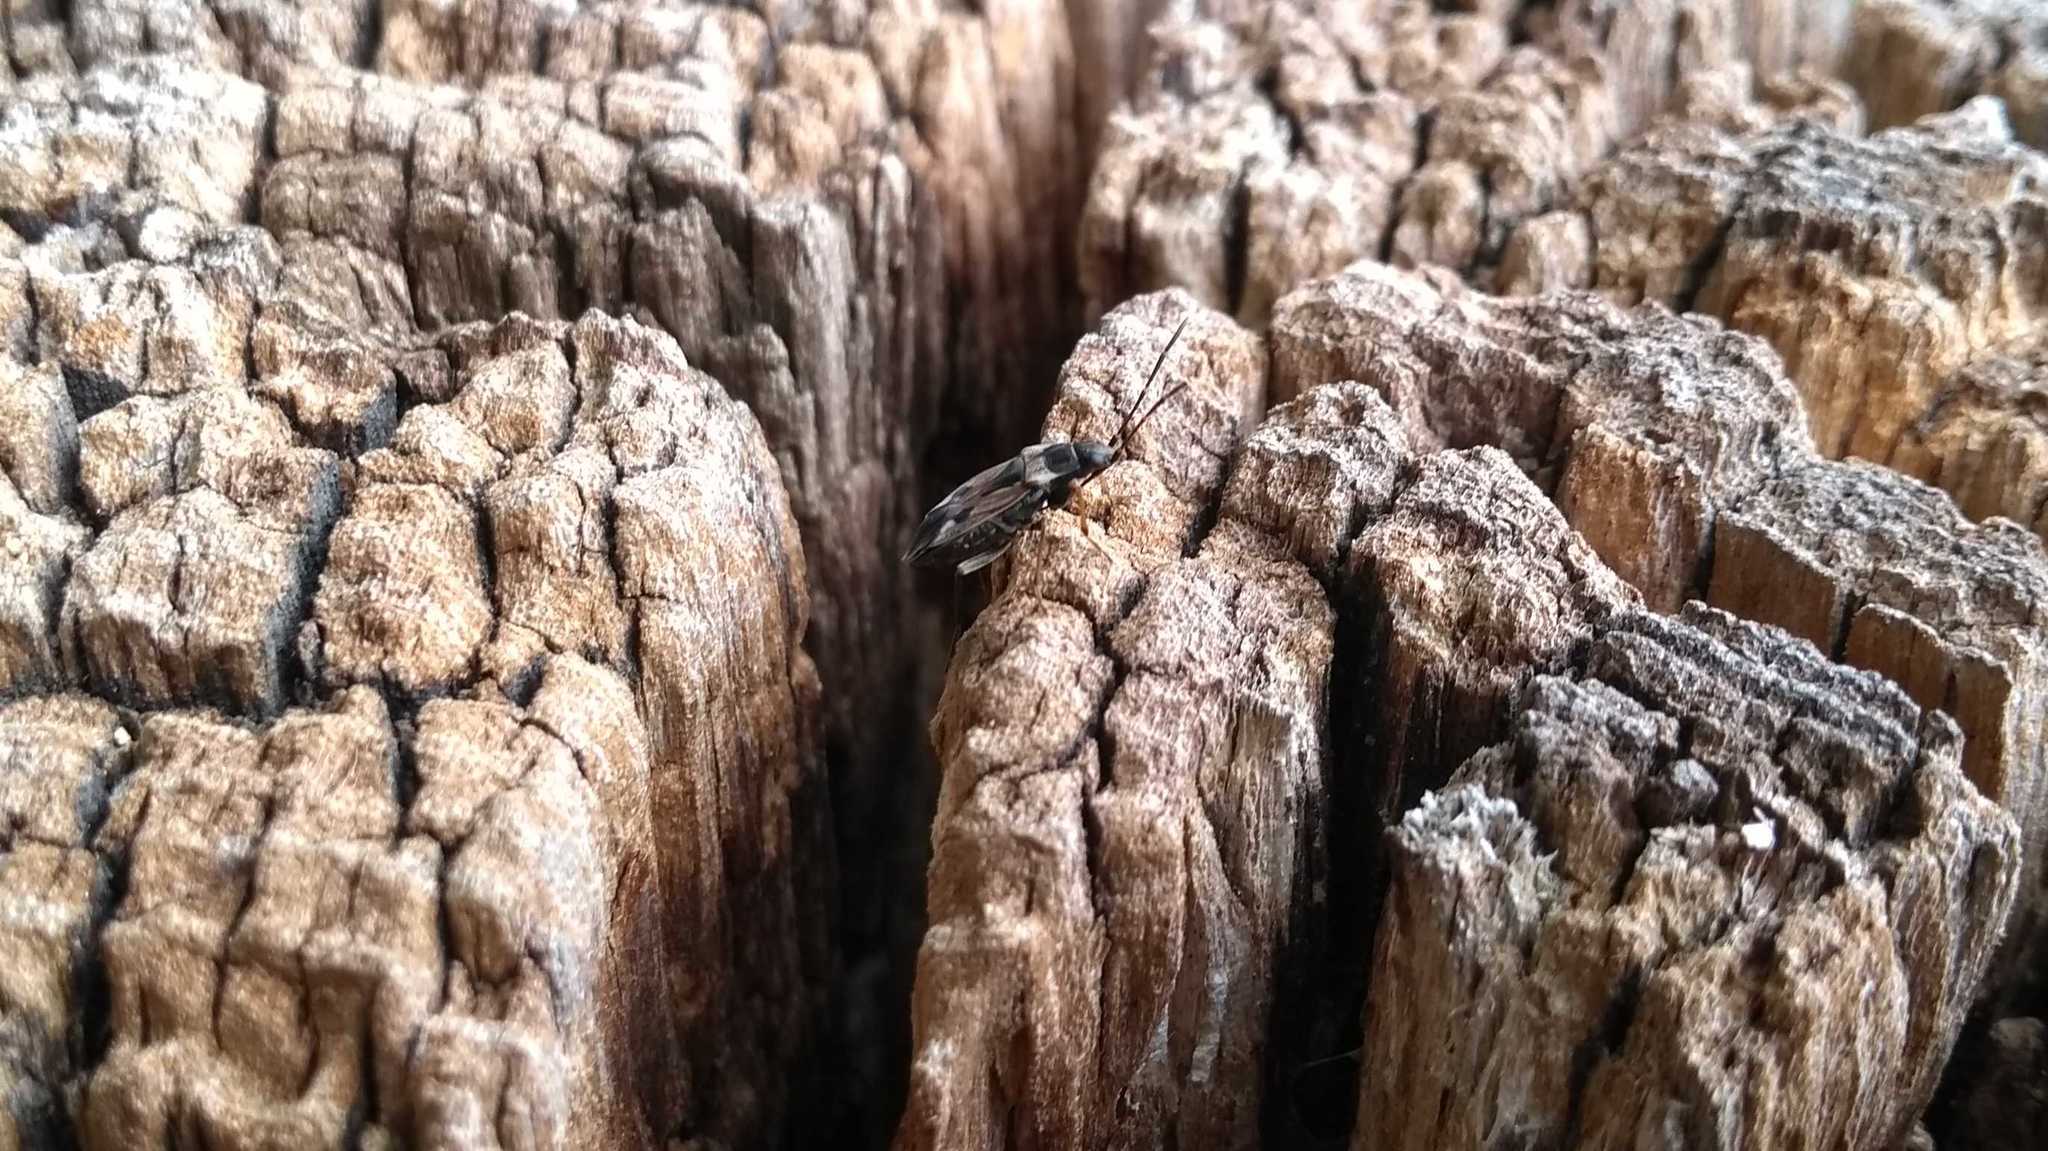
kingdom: Animalia
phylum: Arthropoda
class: Insecta
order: Hemiptera
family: Rhyparochromidae
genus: Rhyparochromus
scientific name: Rhyparochromus vulgaris
